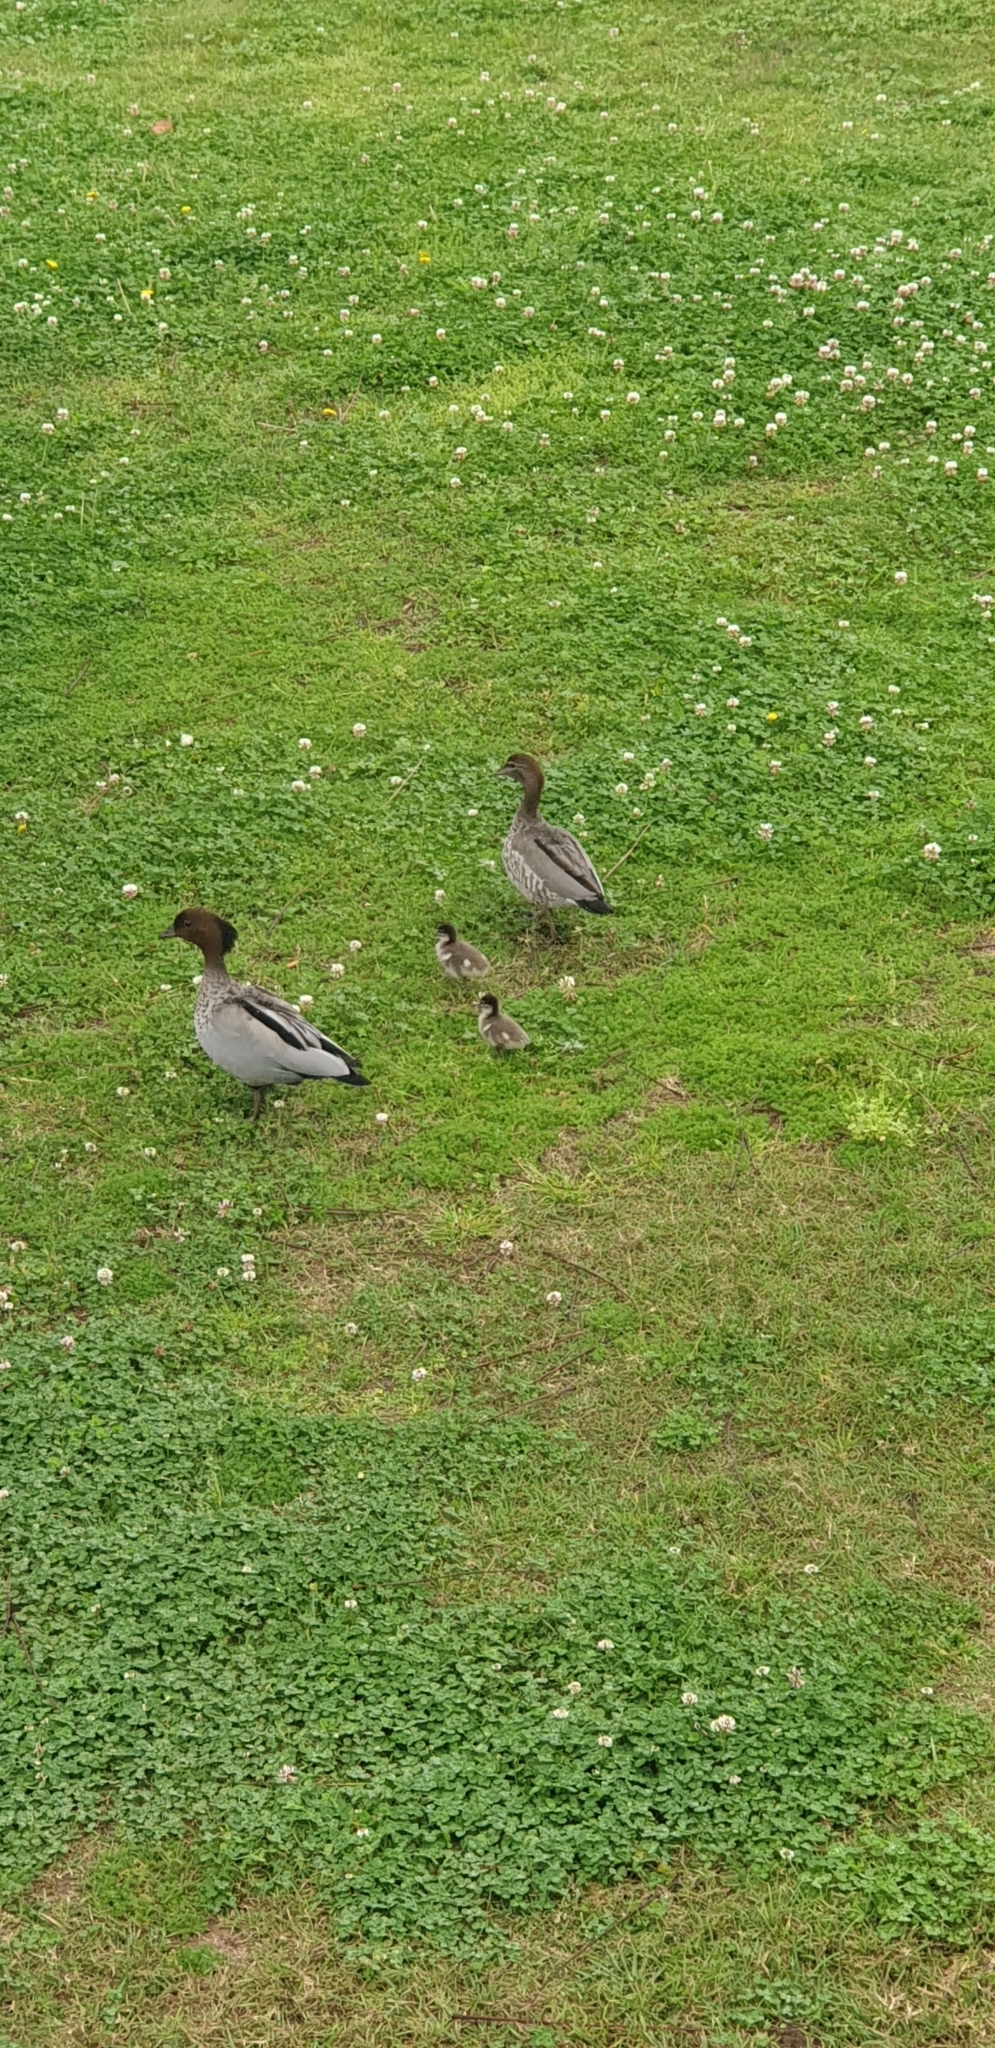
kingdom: Animalia
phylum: Chordata
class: Aves
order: Anseriformes
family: Anatidae
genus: Chenonetta
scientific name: Chenonetta jubata
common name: Maned duck
